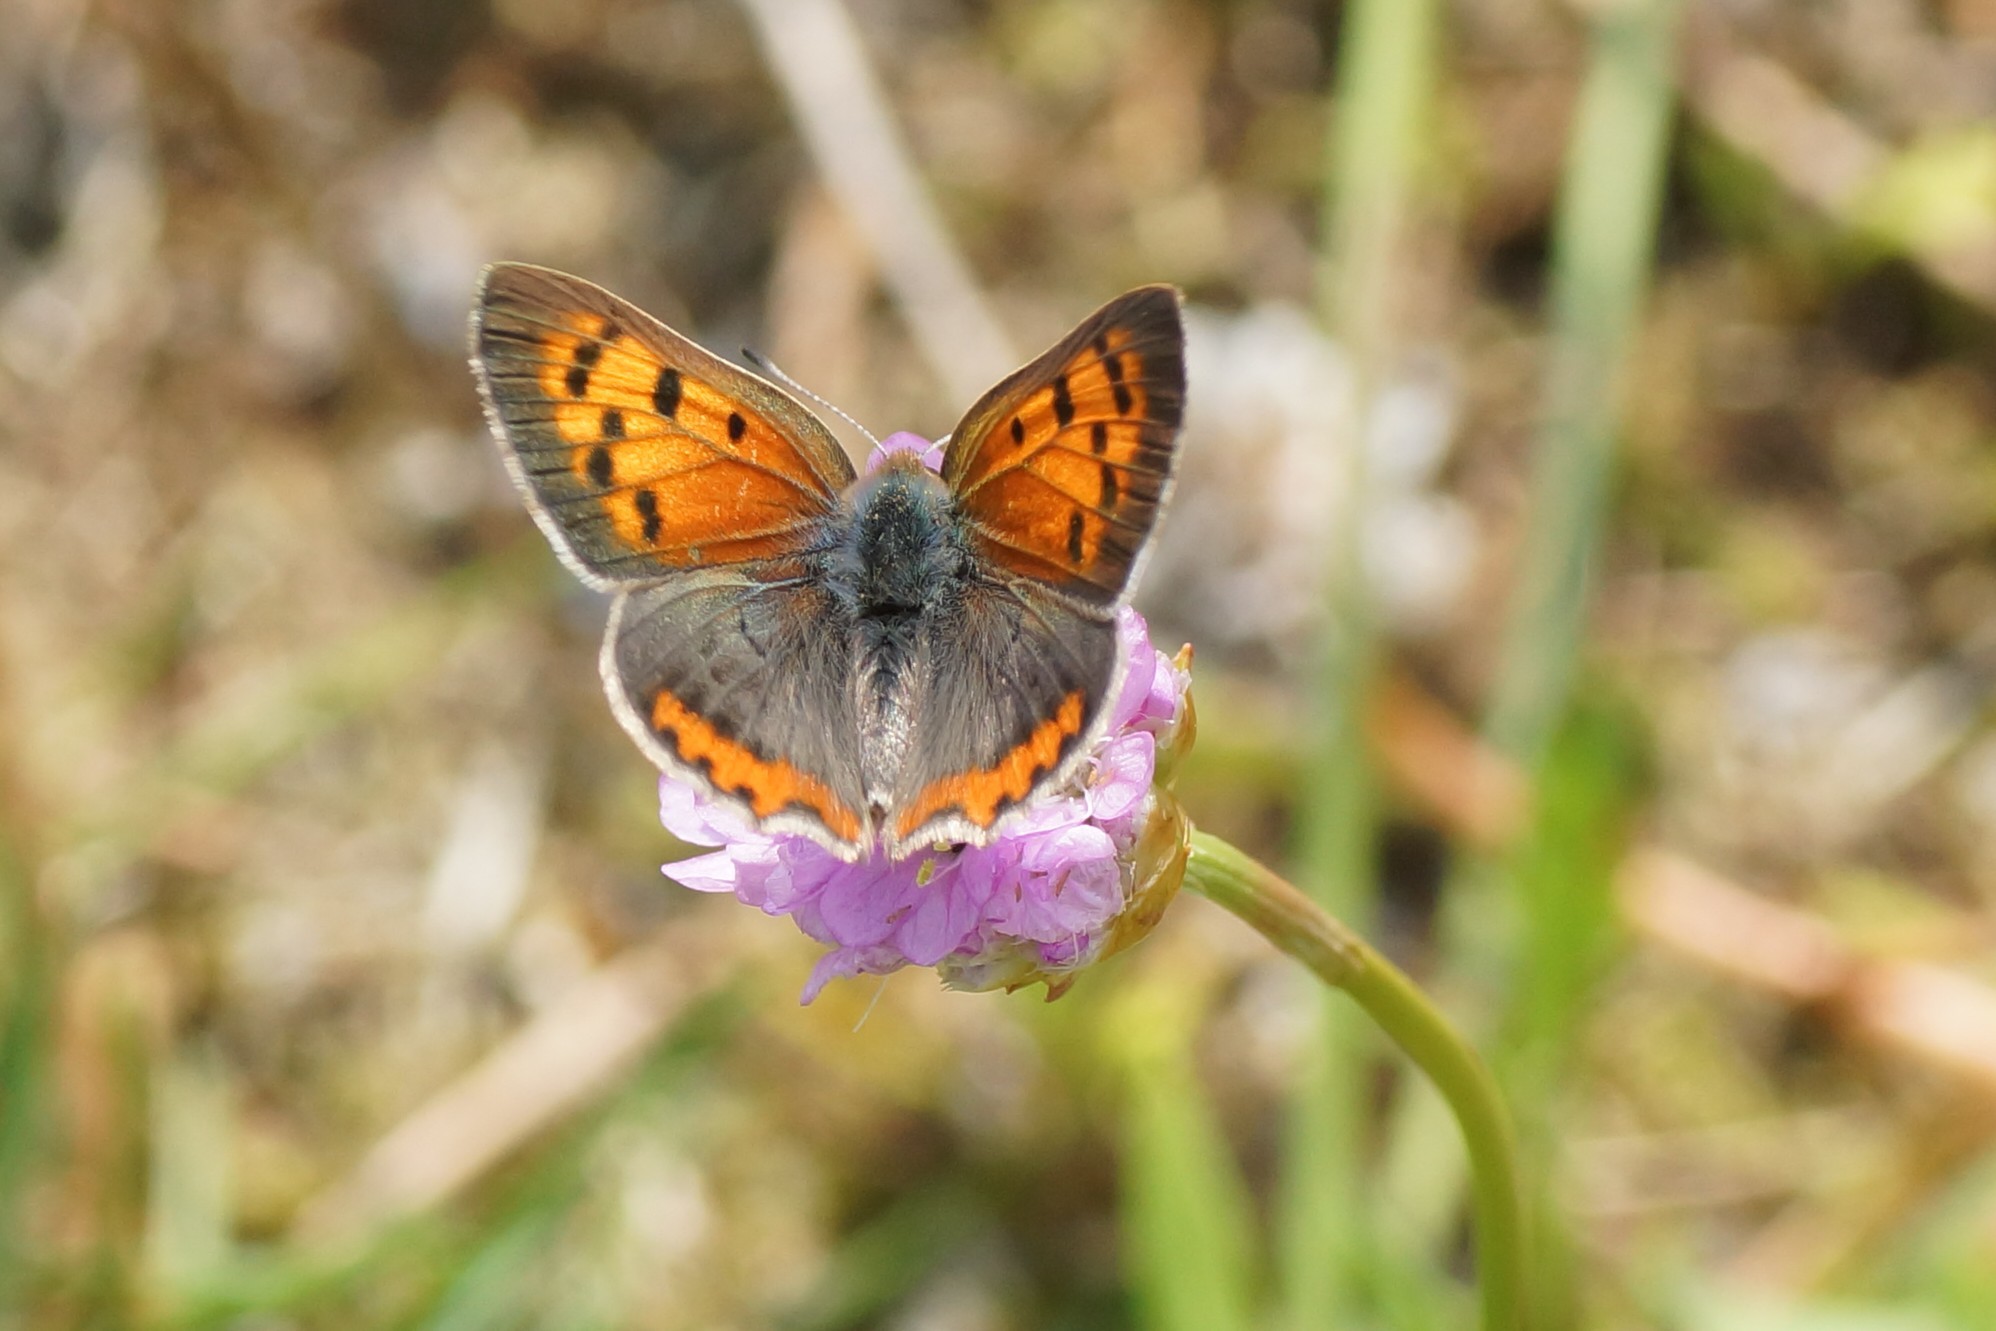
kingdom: Animalia
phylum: Arthropoda
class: Insecta
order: Lepidoptera
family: Lycaenidae
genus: Lycaena
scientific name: Lycaena phlaeas
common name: Small copper
